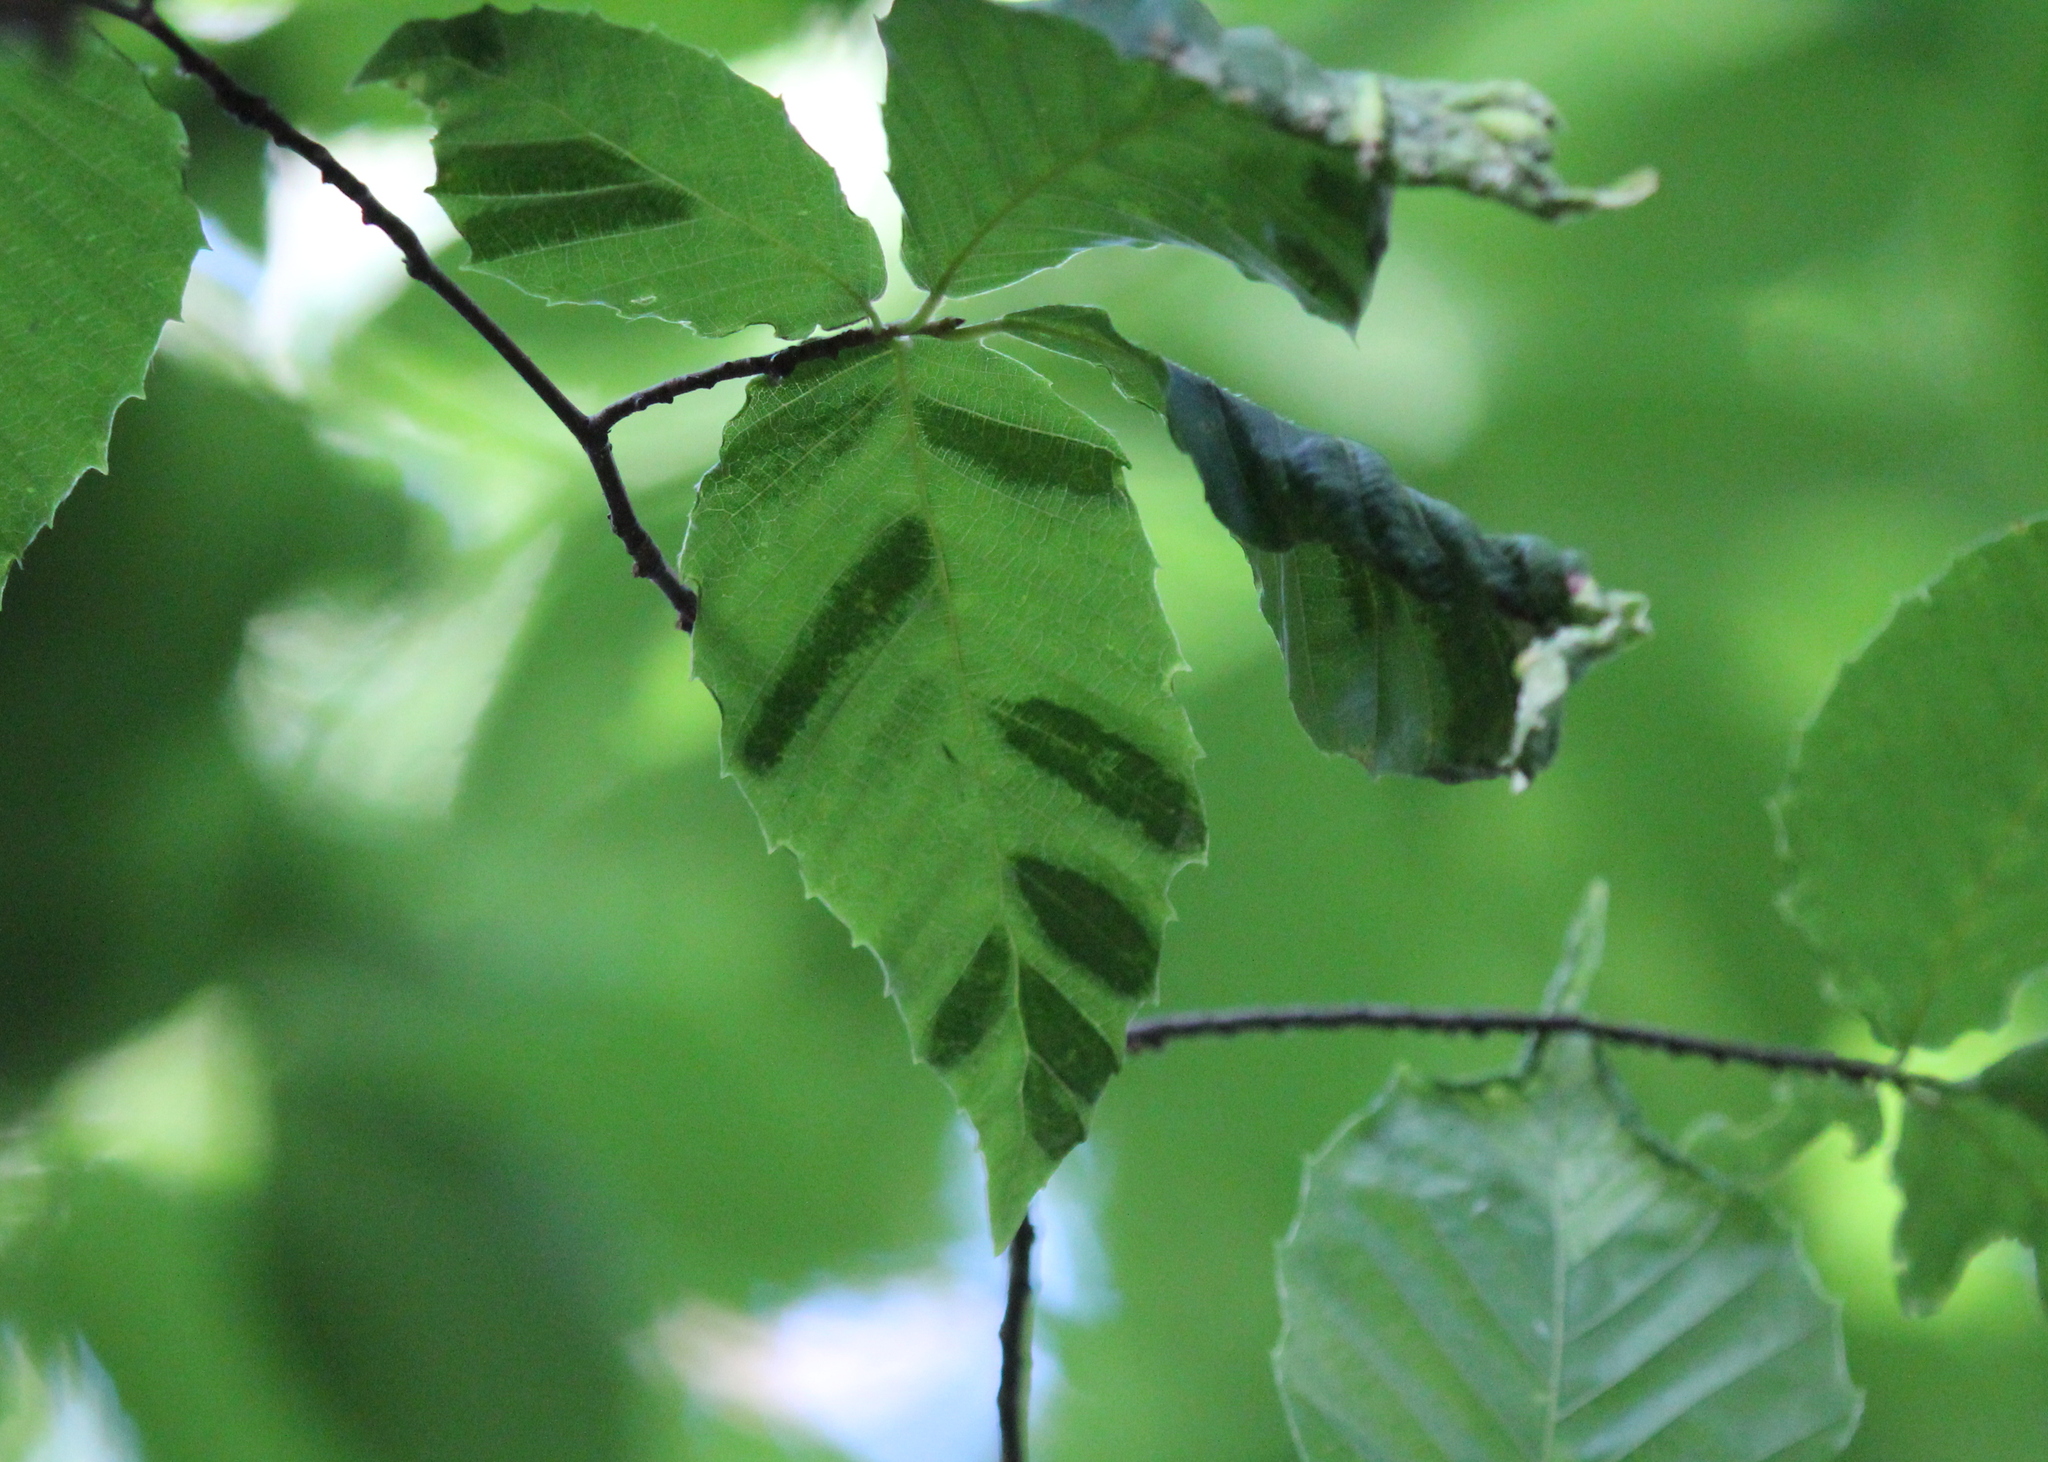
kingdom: Animalia
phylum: Nematoda
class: Chromadorea
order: Rhabditida
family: Anguinidae
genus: Litylenchus
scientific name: Litylenchus crenatae
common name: Beech leaf disease
